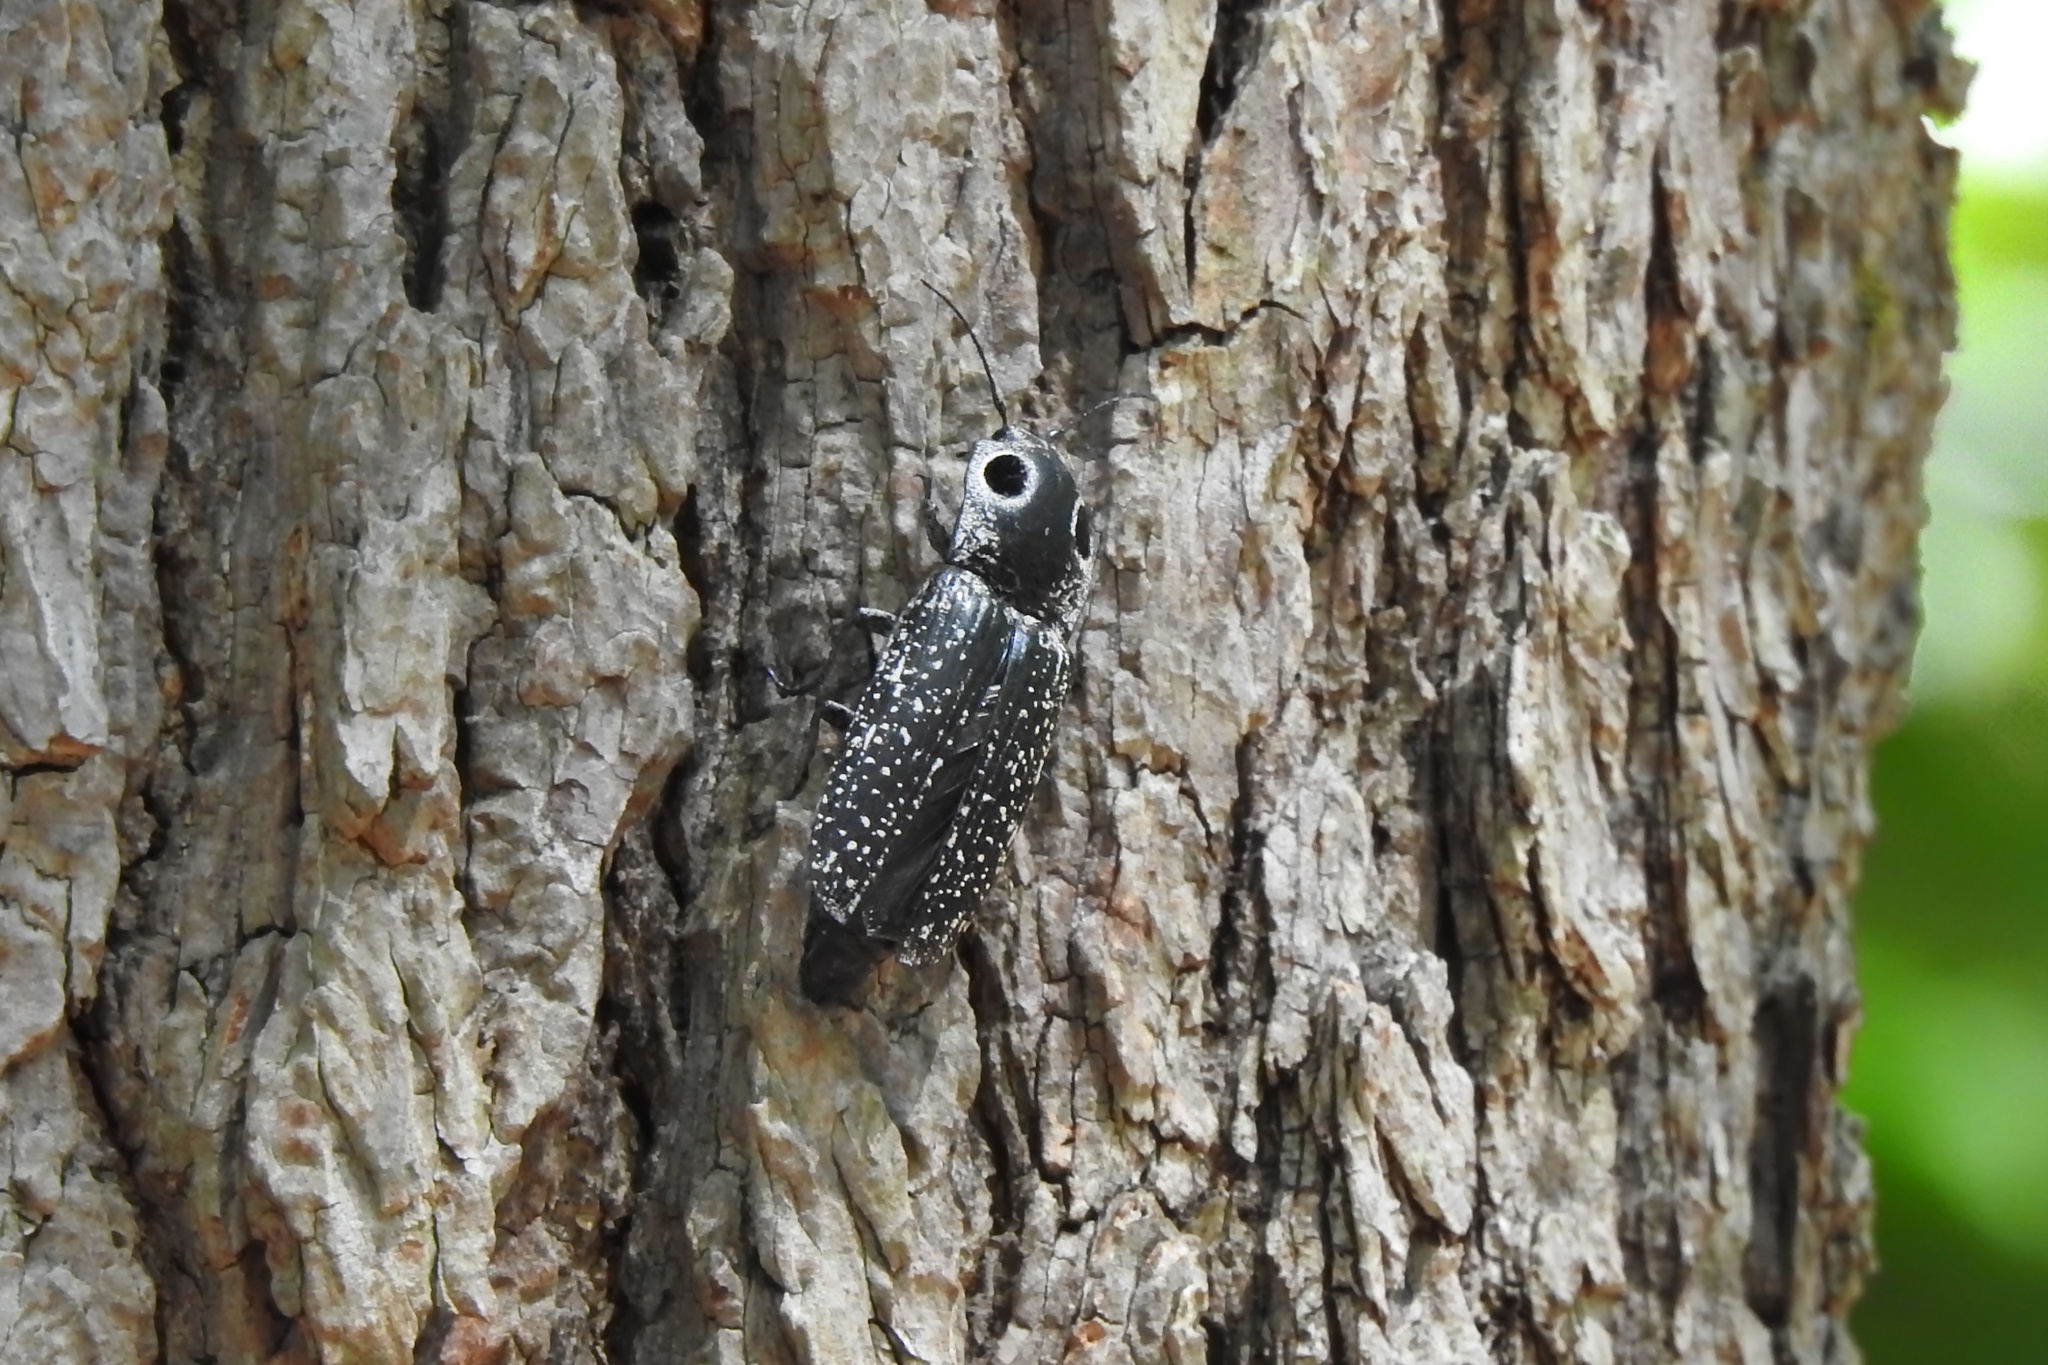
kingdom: Animalia
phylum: Arthropoda
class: Insecta
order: Coleoptera
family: Elateridae
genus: Alaus
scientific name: Alaus oculatus
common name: Eastern eyed click beetle
